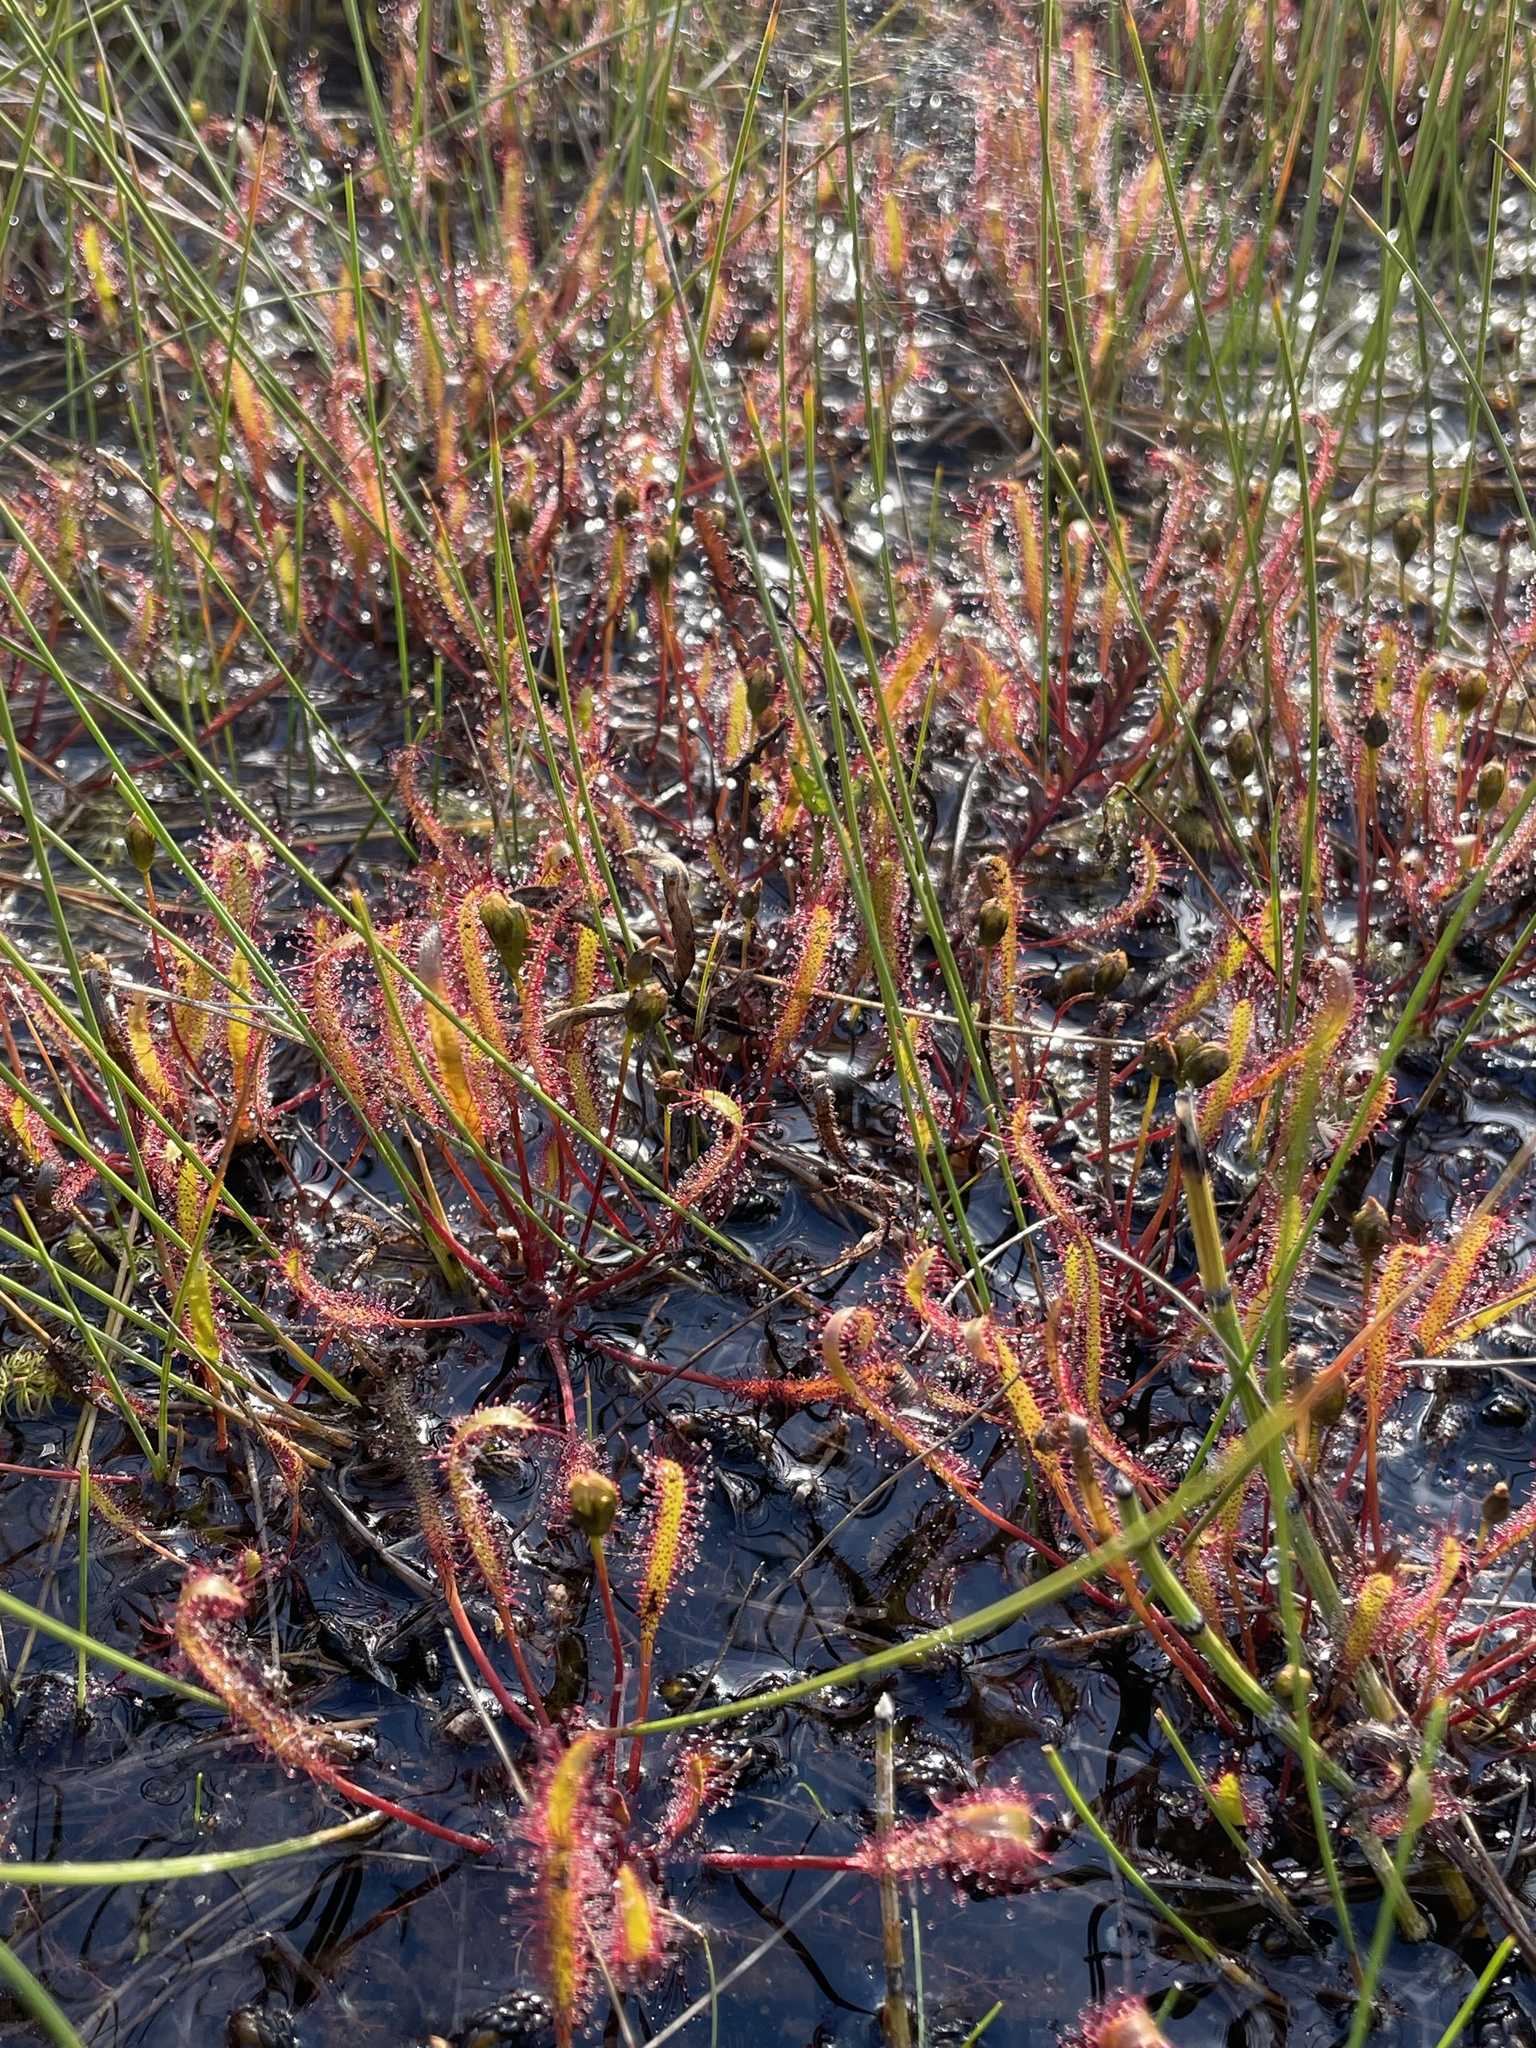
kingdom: Plantae
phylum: Tracheophyta
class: Magnoliopsida
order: Caryophyllales
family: Droseraceae
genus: Drosera
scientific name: Drosera linearis
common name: Linear-leaved sundew
